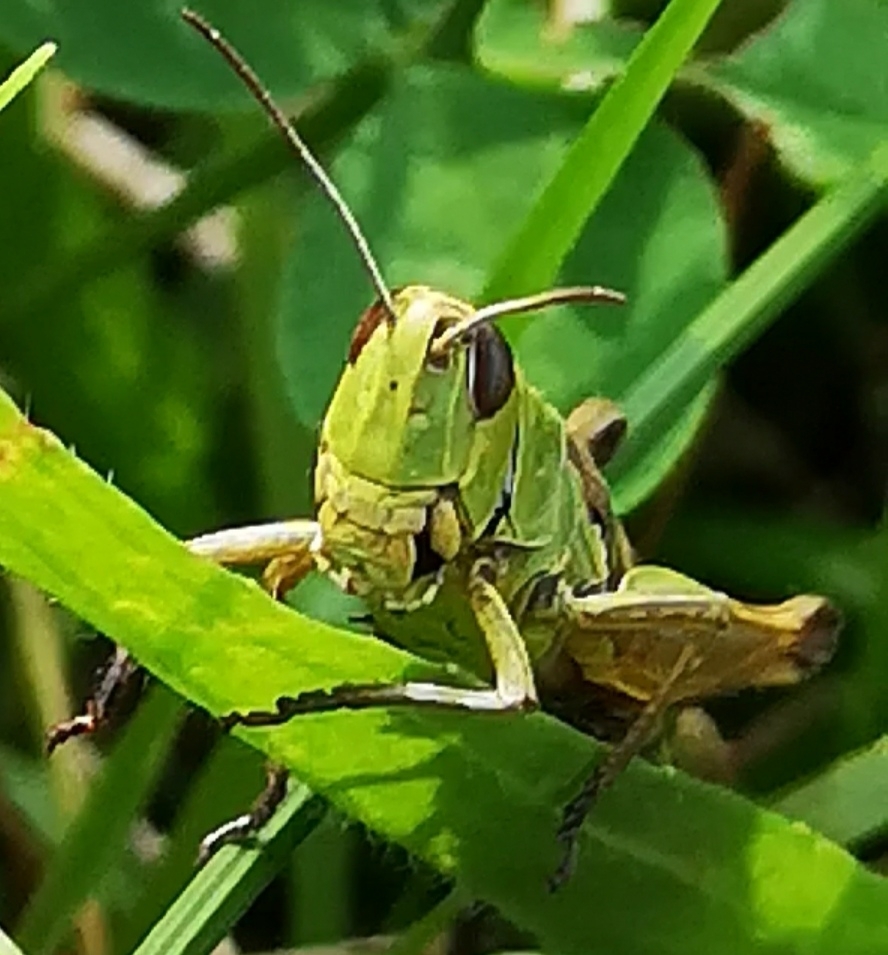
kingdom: Animalia
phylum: Arthropoda
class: Insecta
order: Orthoptera
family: Acrididae
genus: Pseudochorthippus
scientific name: Pseudochorthippus parallelus
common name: Meadow grasshopper
